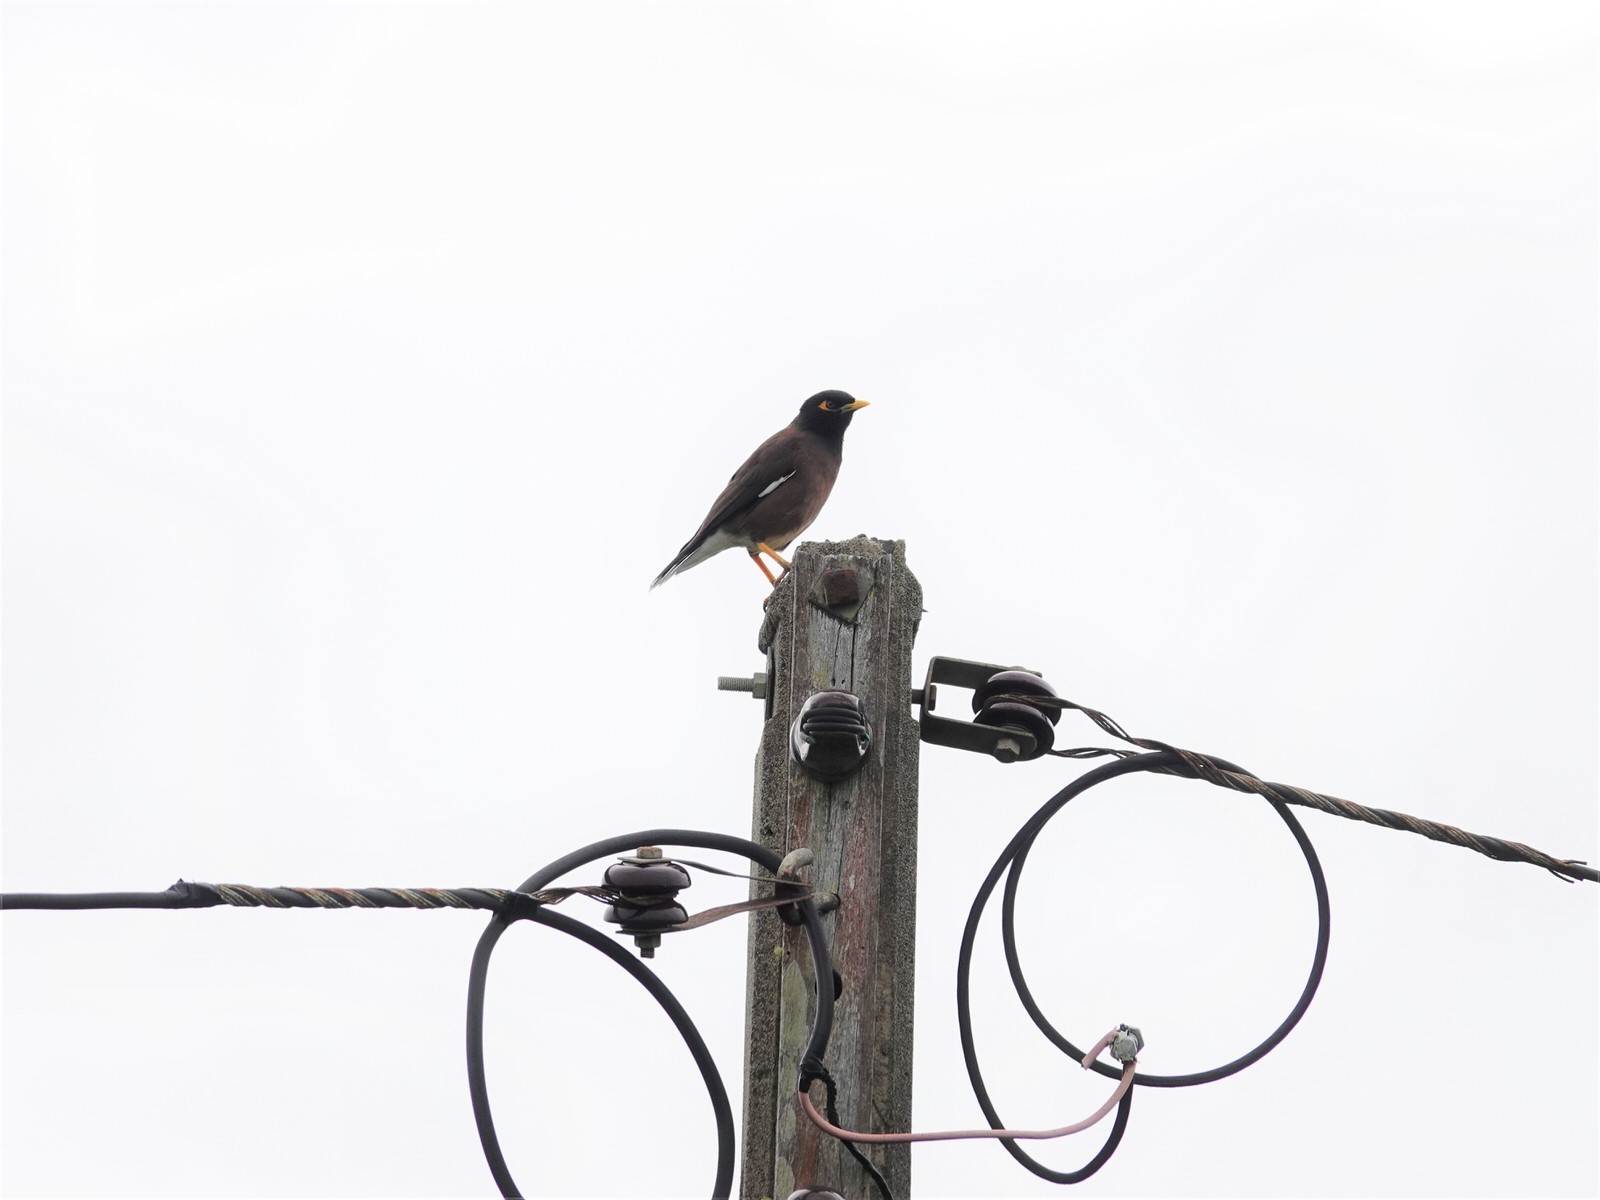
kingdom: Animalia
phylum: Chordata
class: Aves
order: Passeriformes
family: Sturnidae
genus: Acridotheres
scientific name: Acridotheres tristis
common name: Common myna
